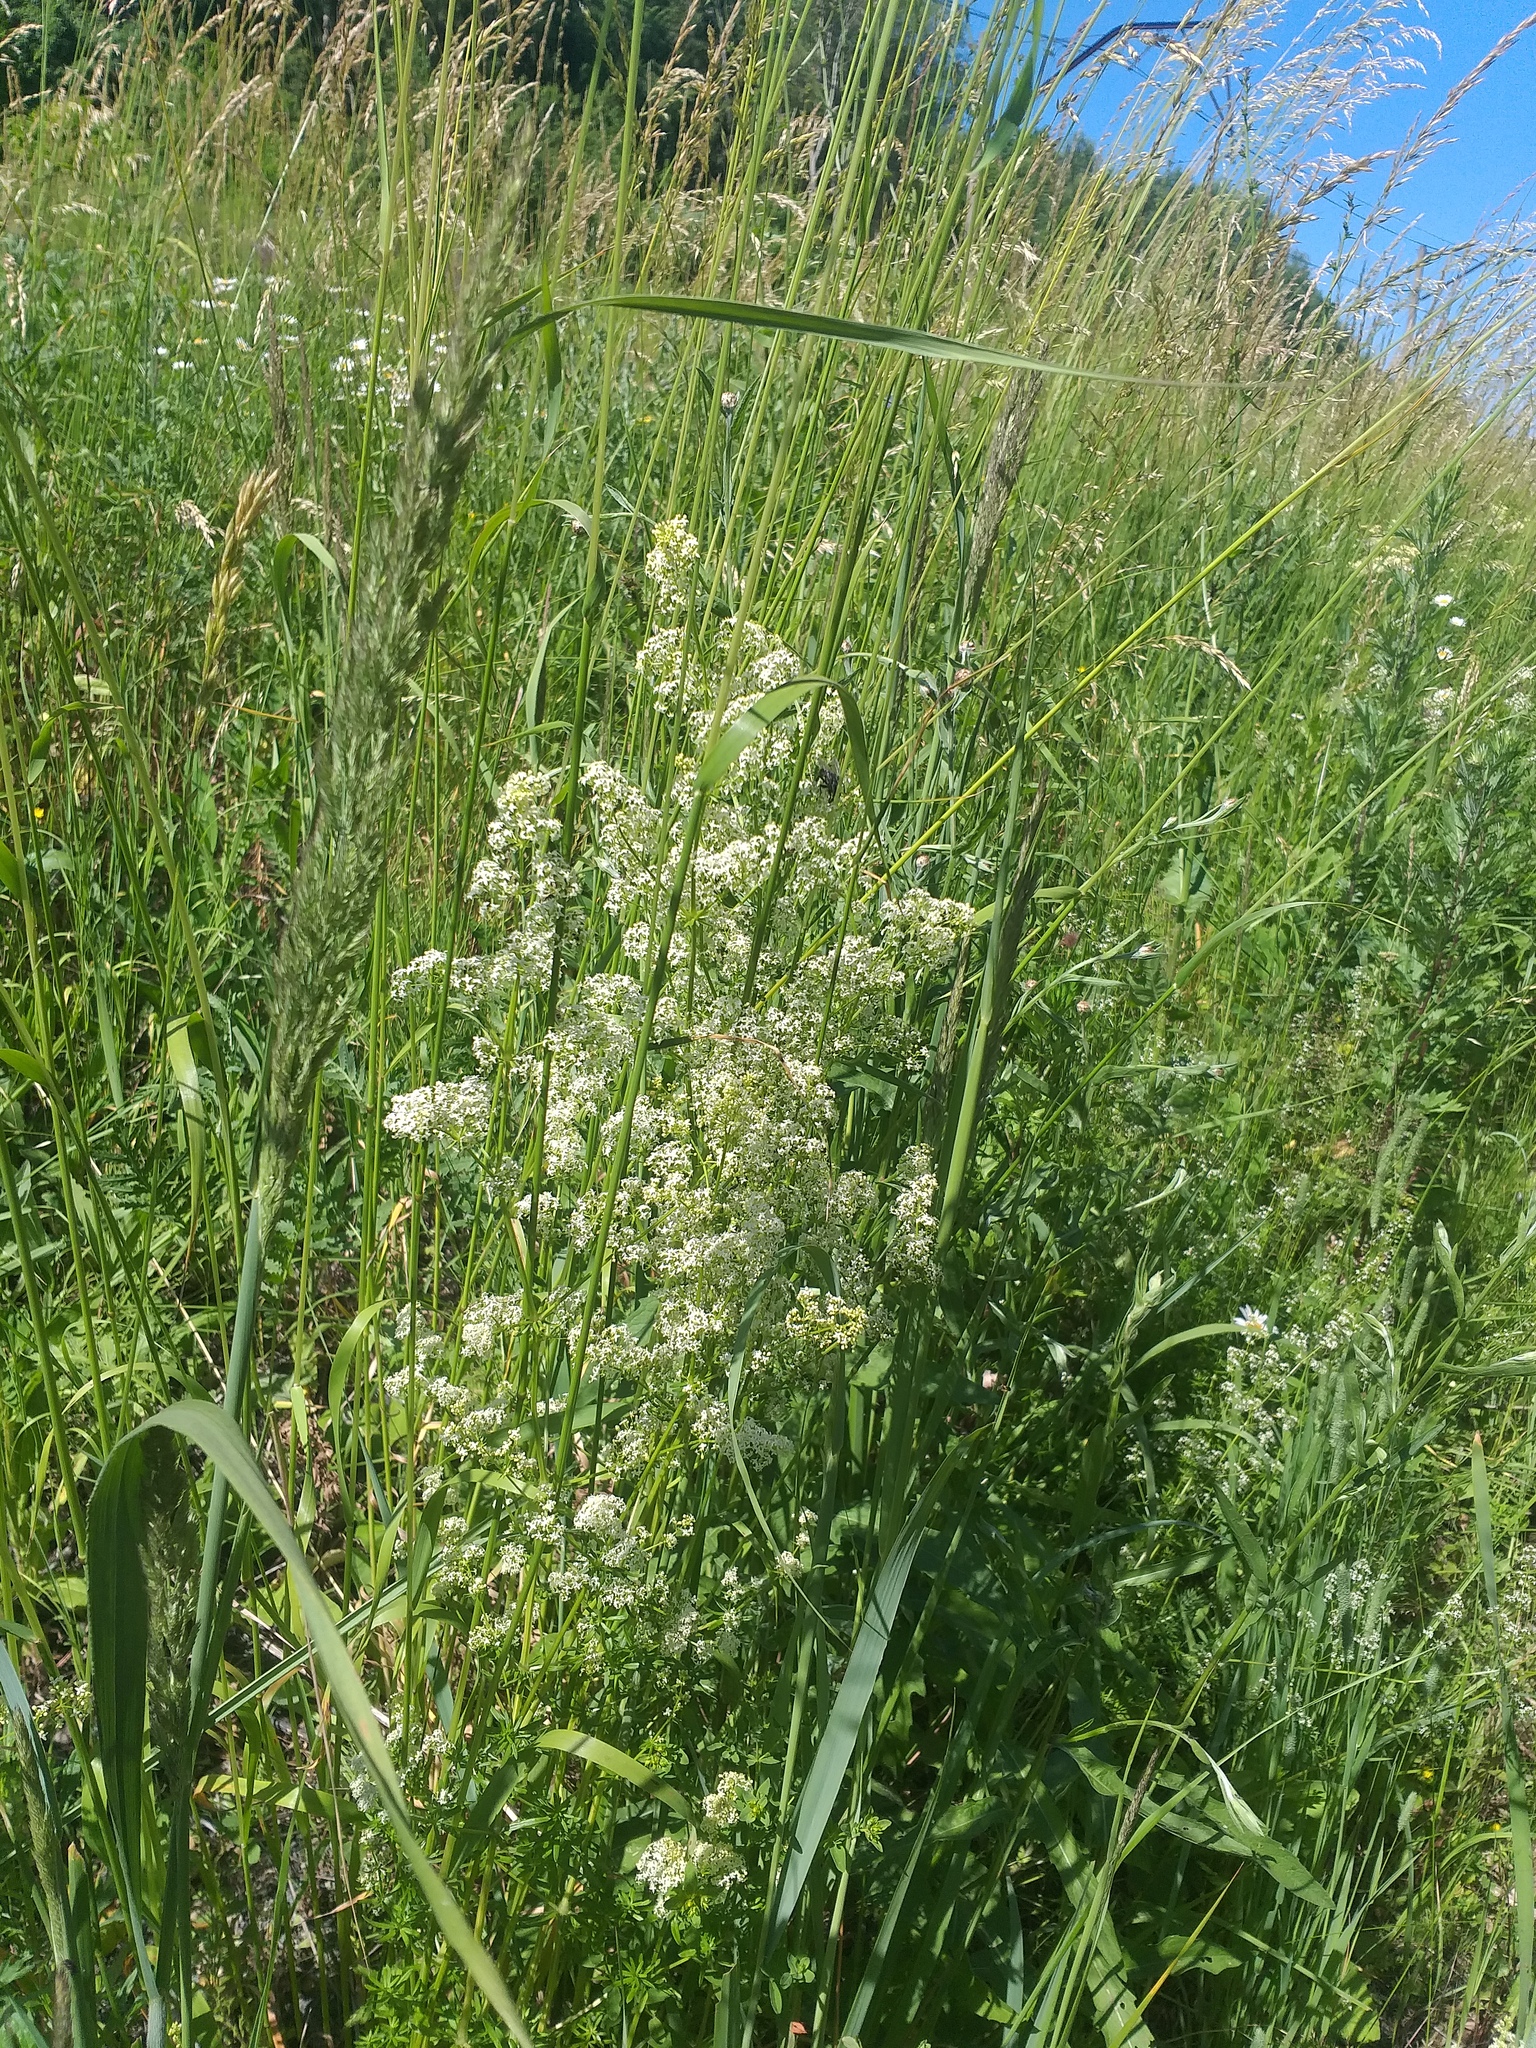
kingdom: Plantae
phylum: Tracheophyta
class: Magnoliopsida
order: Gentianales
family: Rubiaceae
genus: Galium
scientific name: Galium mollugo
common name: Hedge bedstraw
